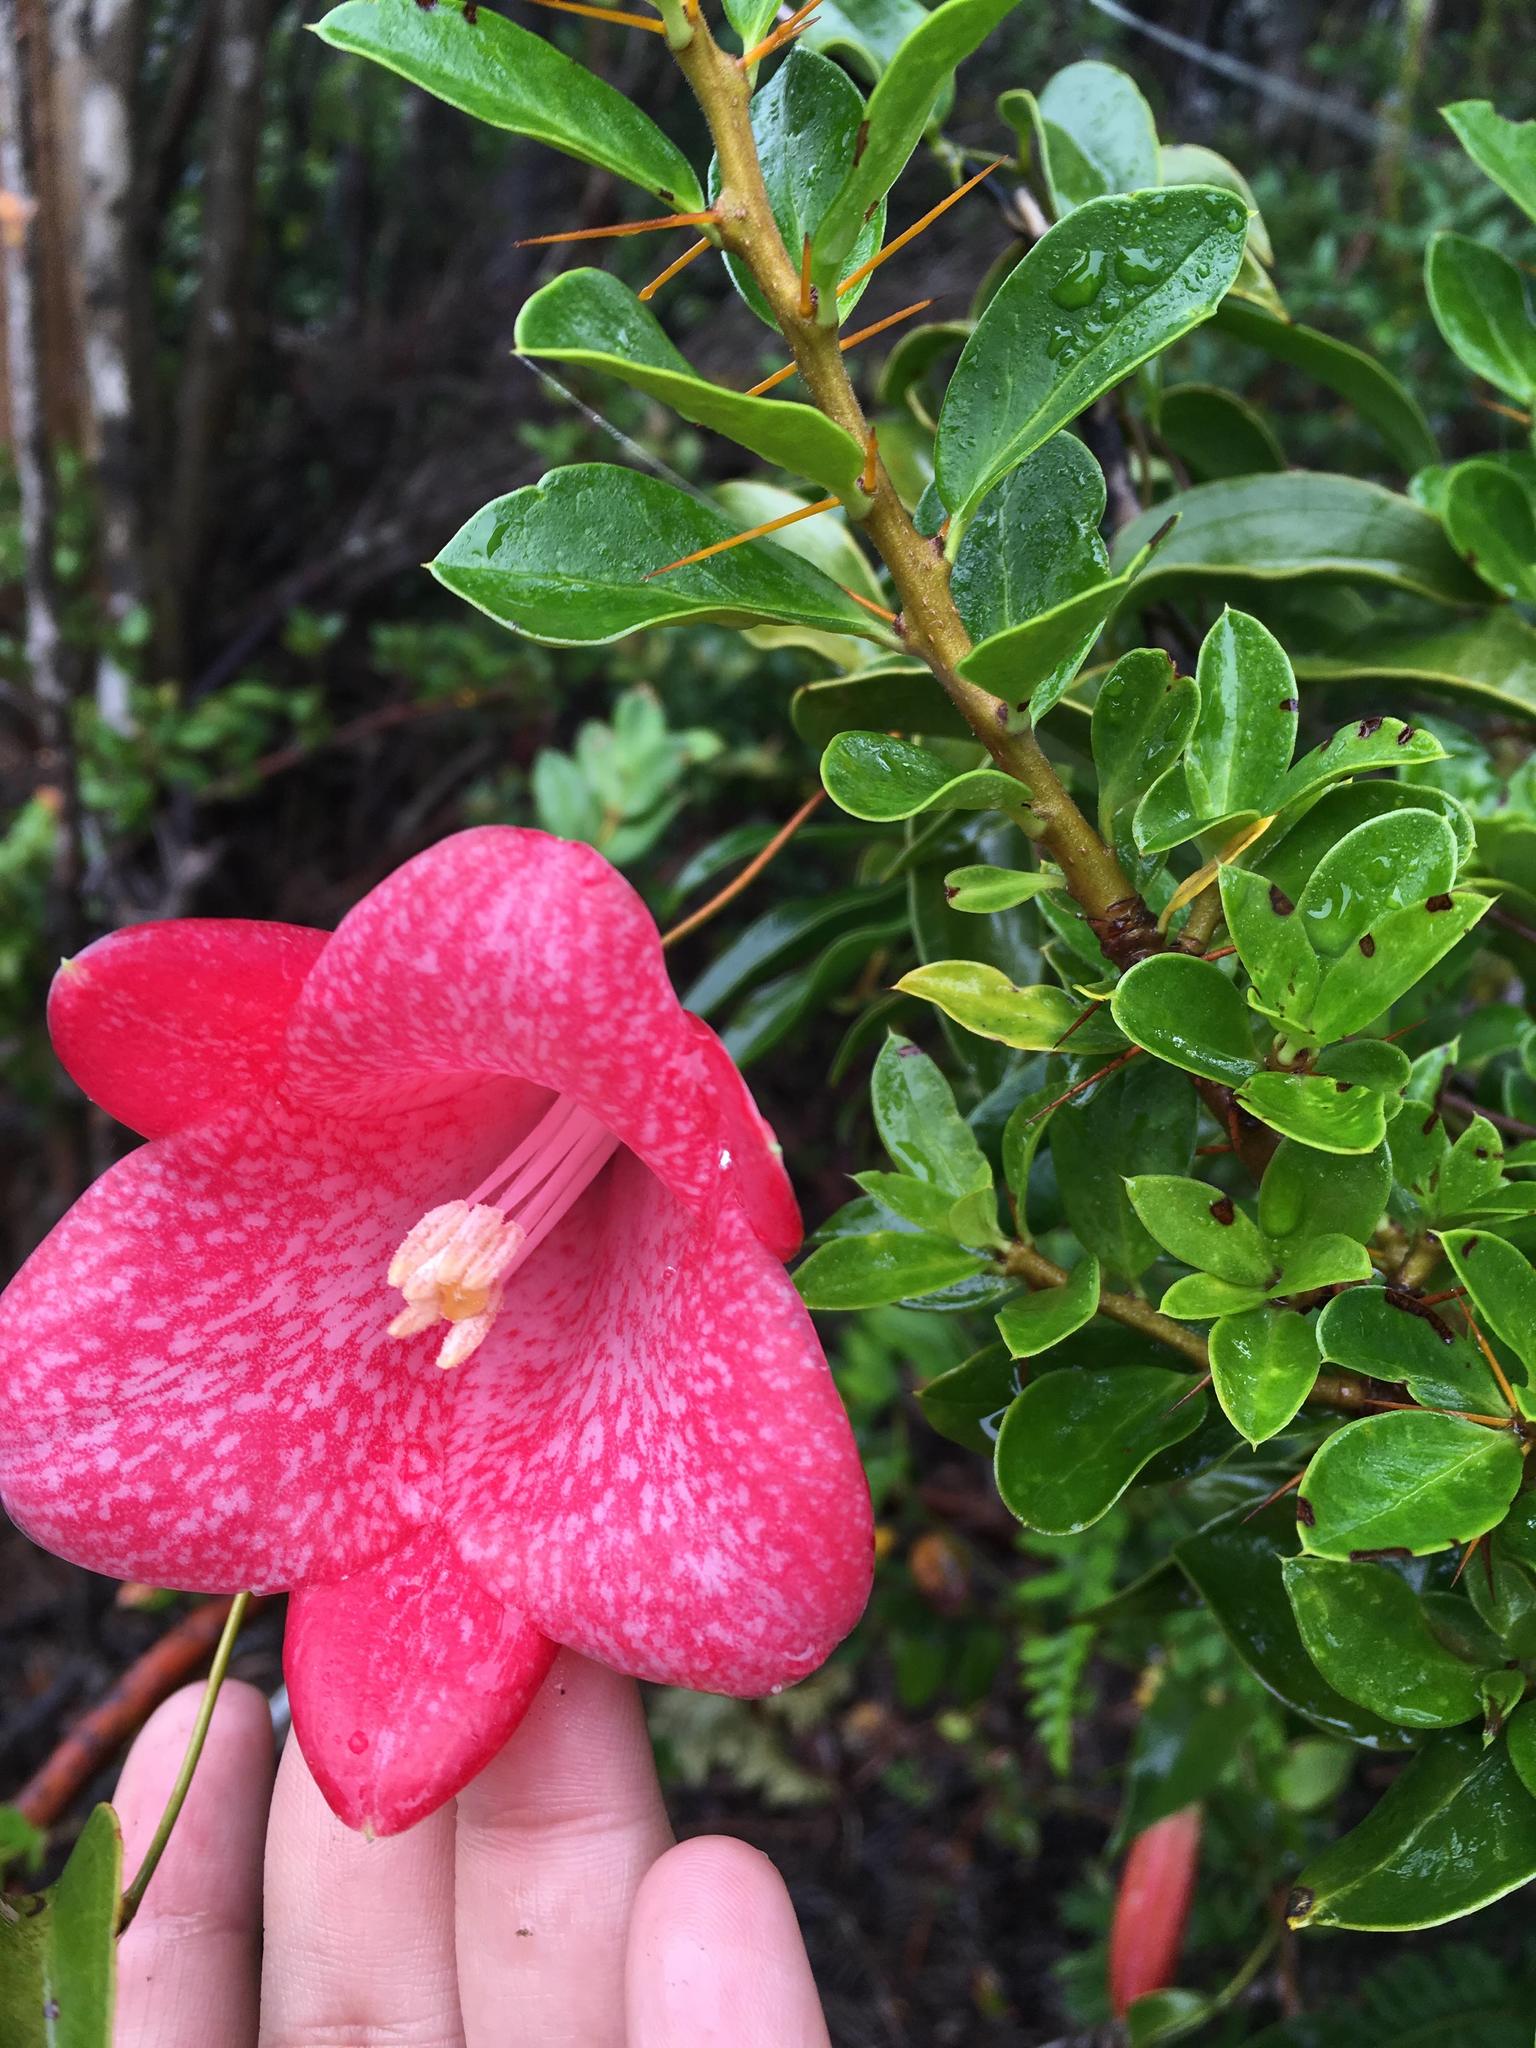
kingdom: Plantae
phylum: Tracheophyta
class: Liliopsida
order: Liliales
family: Philesiaceae
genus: Lapageria
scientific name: Lapageria rosea
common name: Chilean-bellflower
